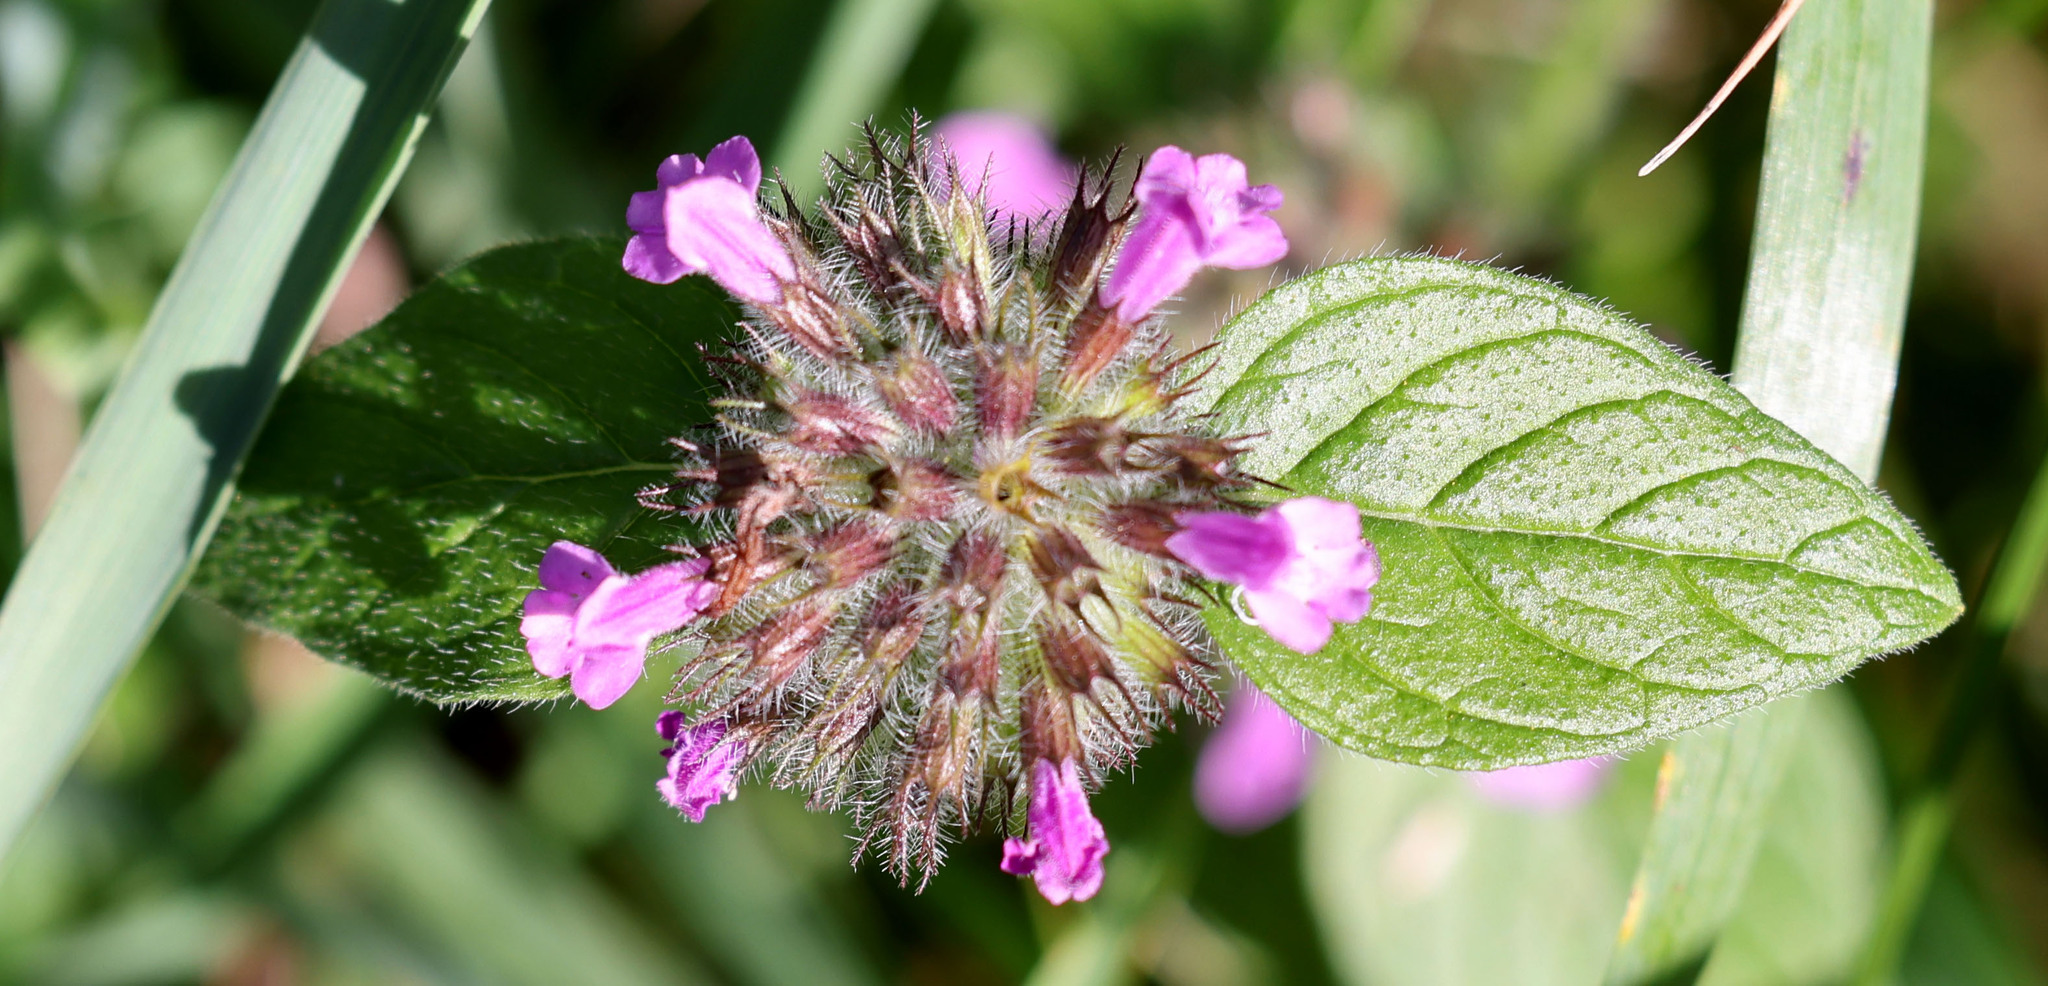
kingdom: Plantae
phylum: Tracheophyta
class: Magnoliopsida
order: Lamiales
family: Lamiaceae
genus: Clinopodium
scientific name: Clinopodium vulgare
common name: Wild basil
